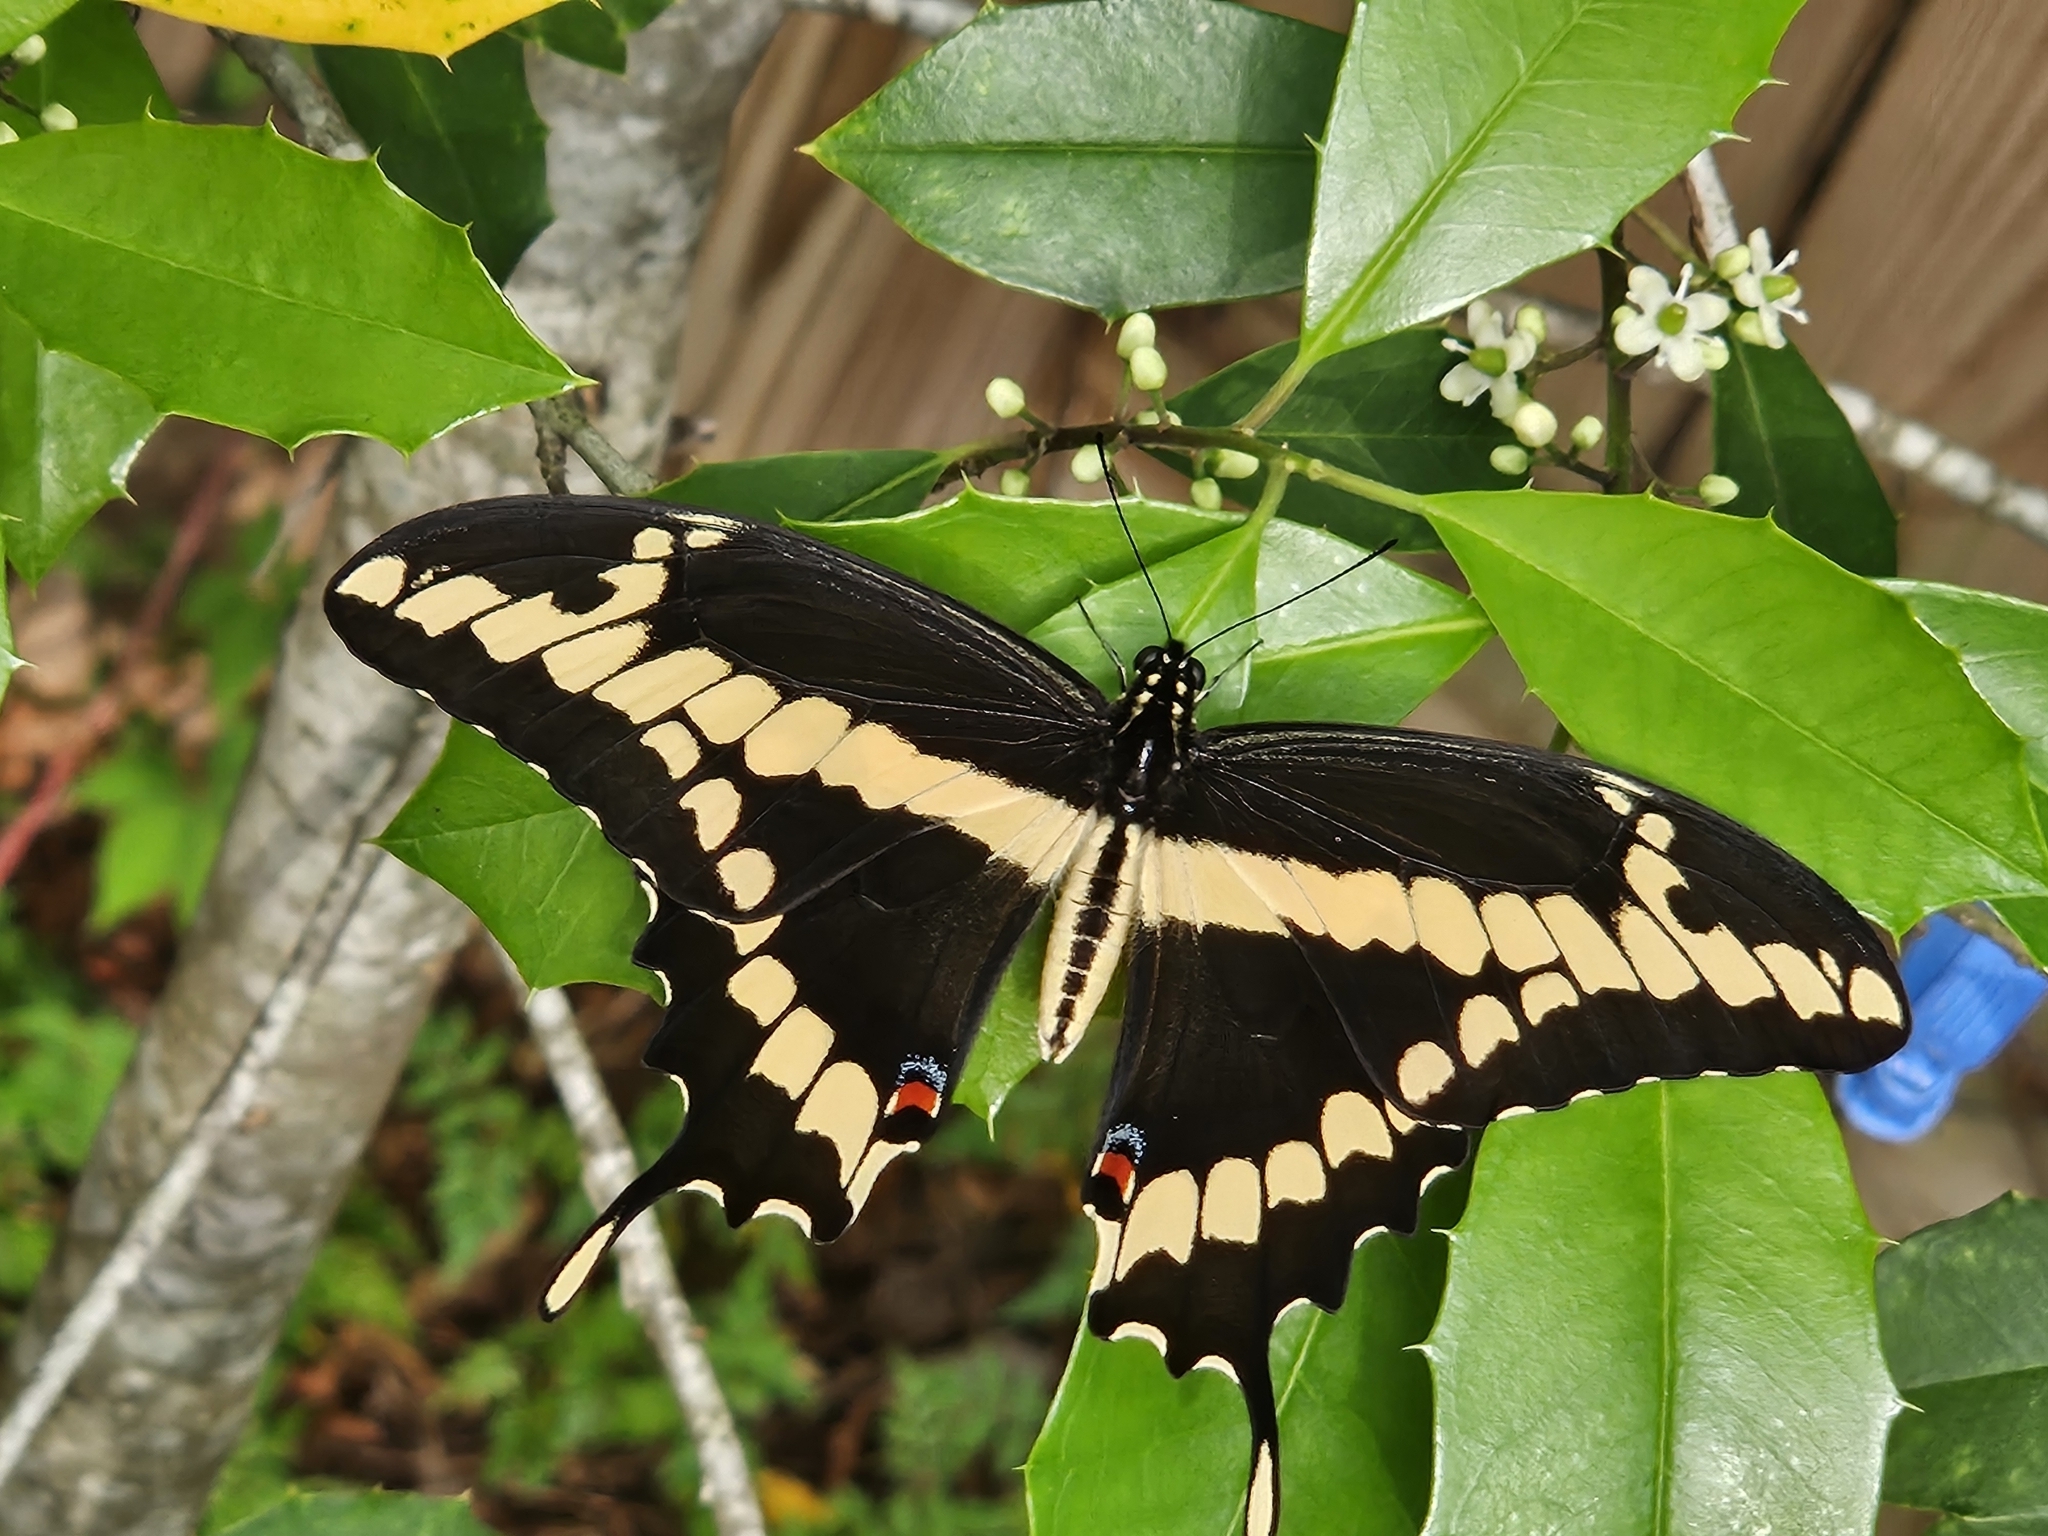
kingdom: Animalia
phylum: Arthropoda
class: Insecta
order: Lepidoptera
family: Papilionidae
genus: Papilio
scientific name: Papilio cresphontes
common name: Giant swallowtail
